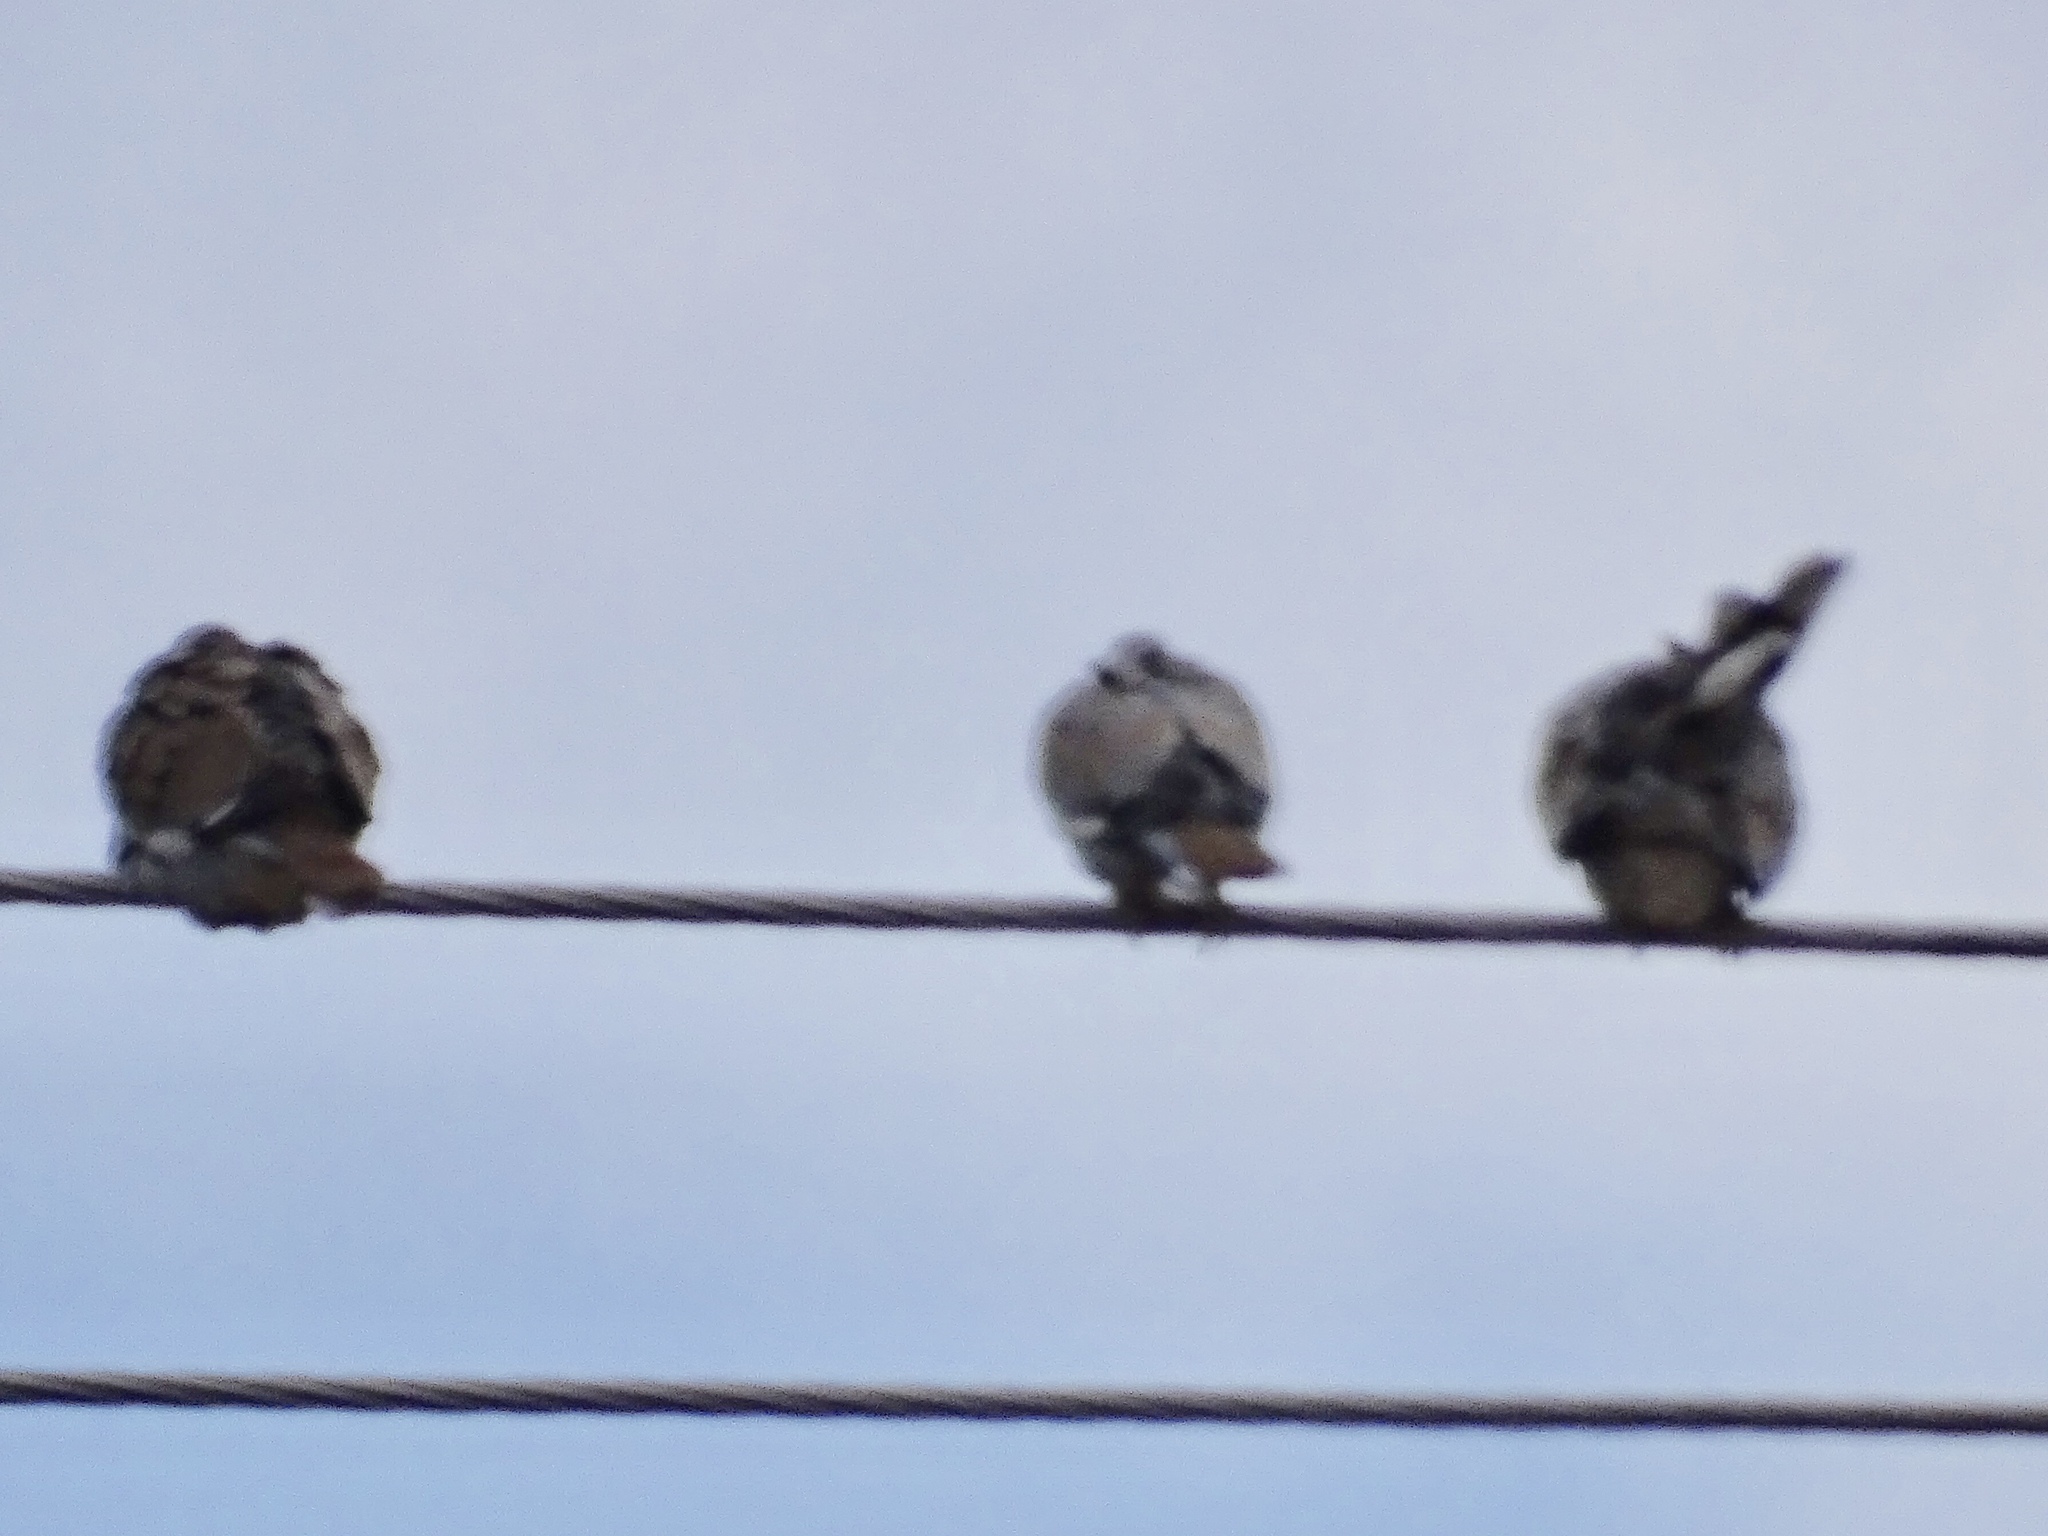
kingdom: Animalia
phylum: Chordata
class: Aves
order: Columbiformes
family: Columbidae
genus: Zenaida
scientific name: Zenaida asiatica
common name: White-winged dove
